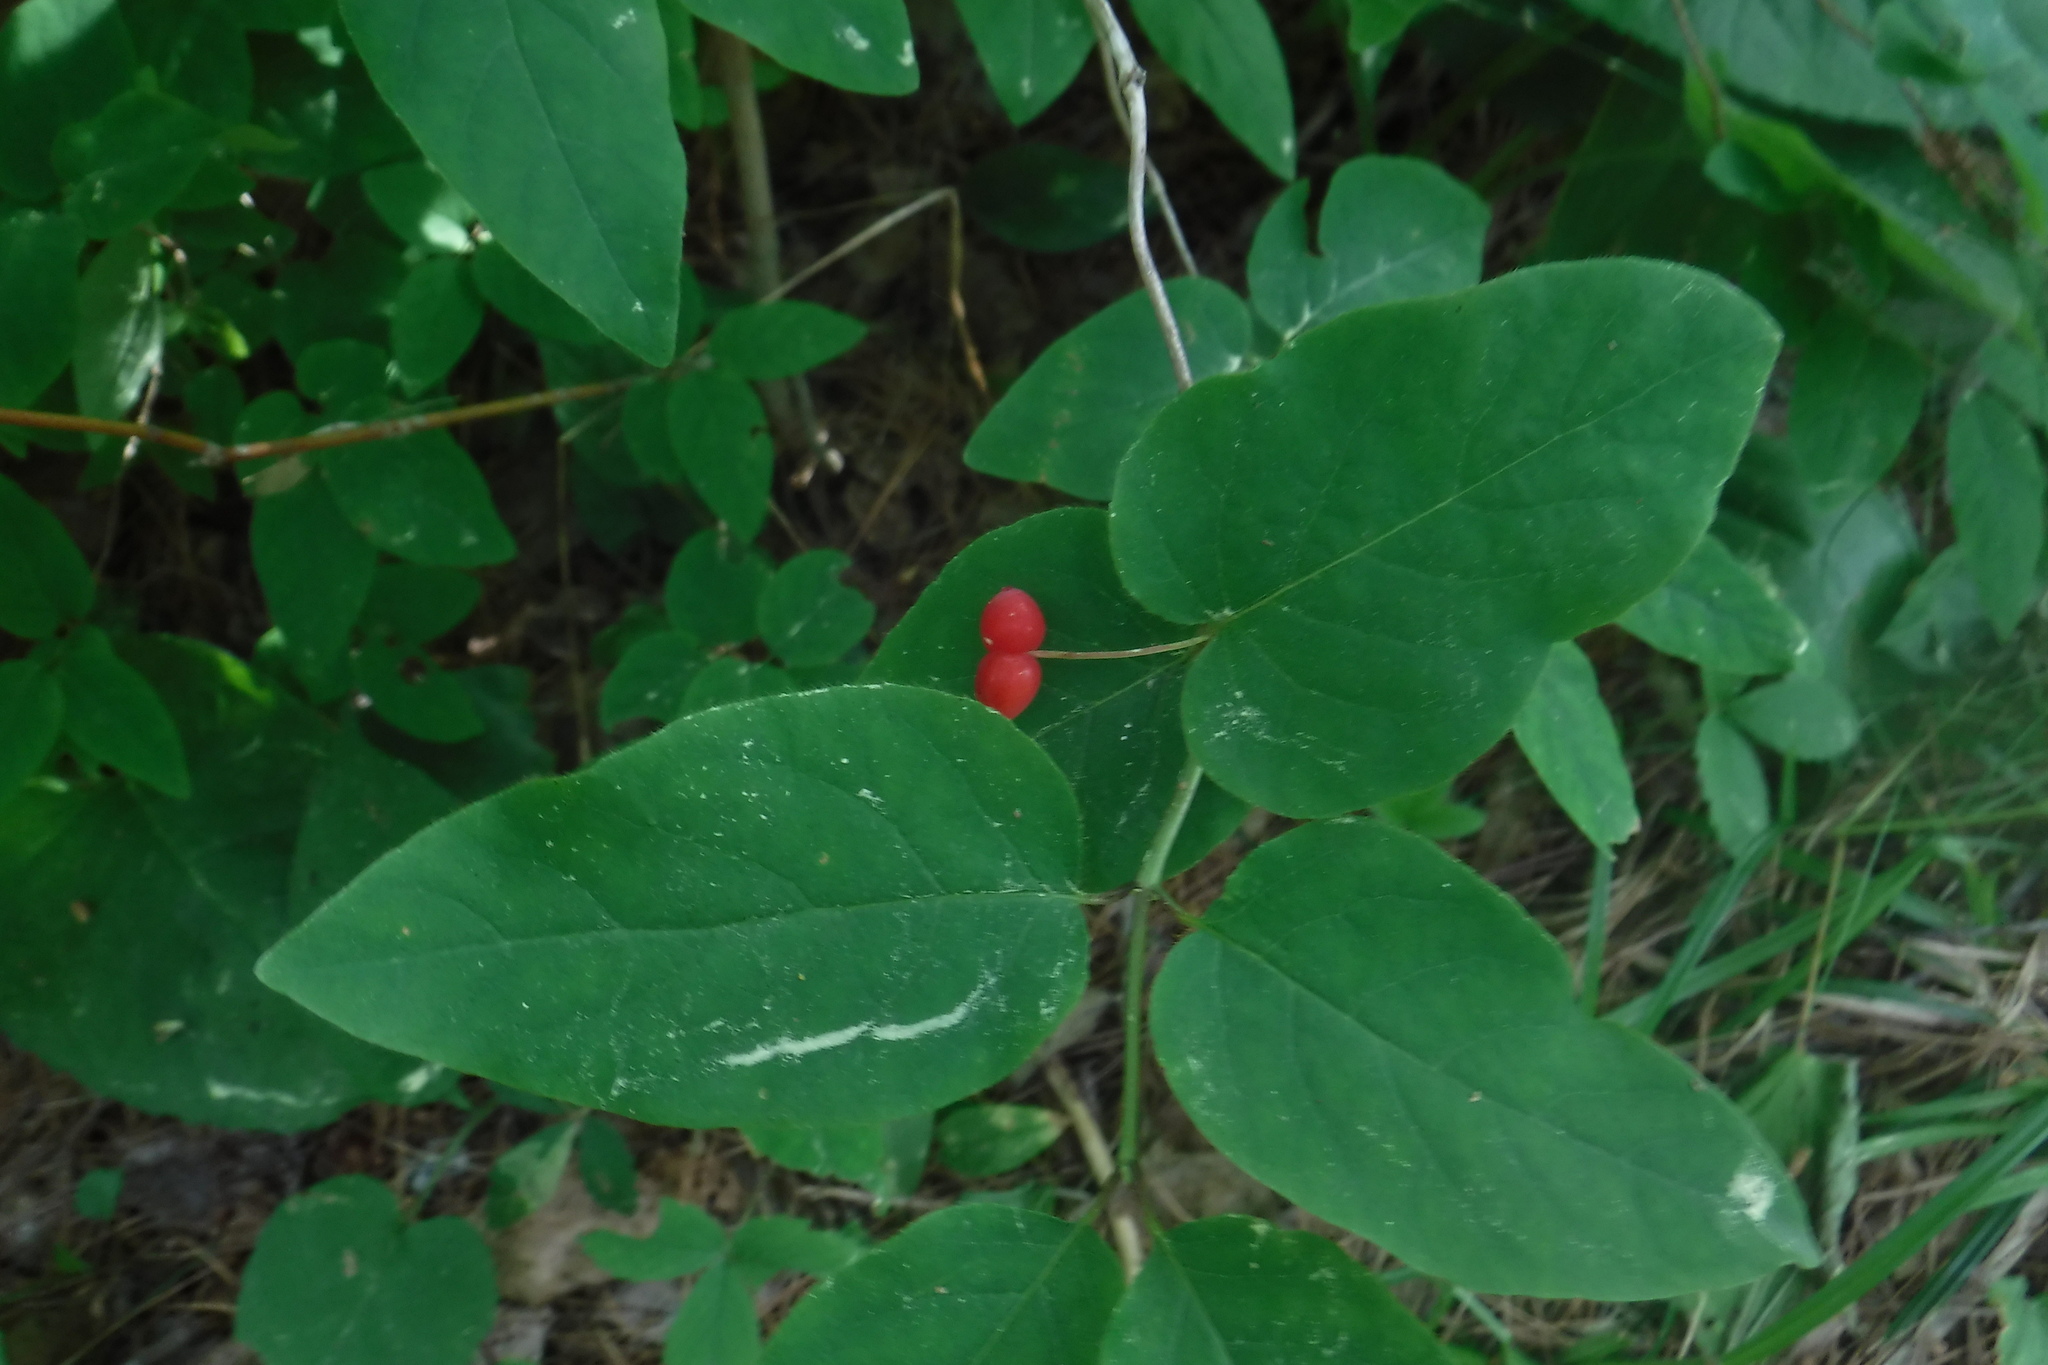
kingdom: Plantae
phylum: Tracheophyta
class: Magnoliopsida
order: Dipsacales
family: Caprifoliaceae
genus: Lonicera
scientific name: Lonicera canadensis
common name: American fly-honeysuckle
